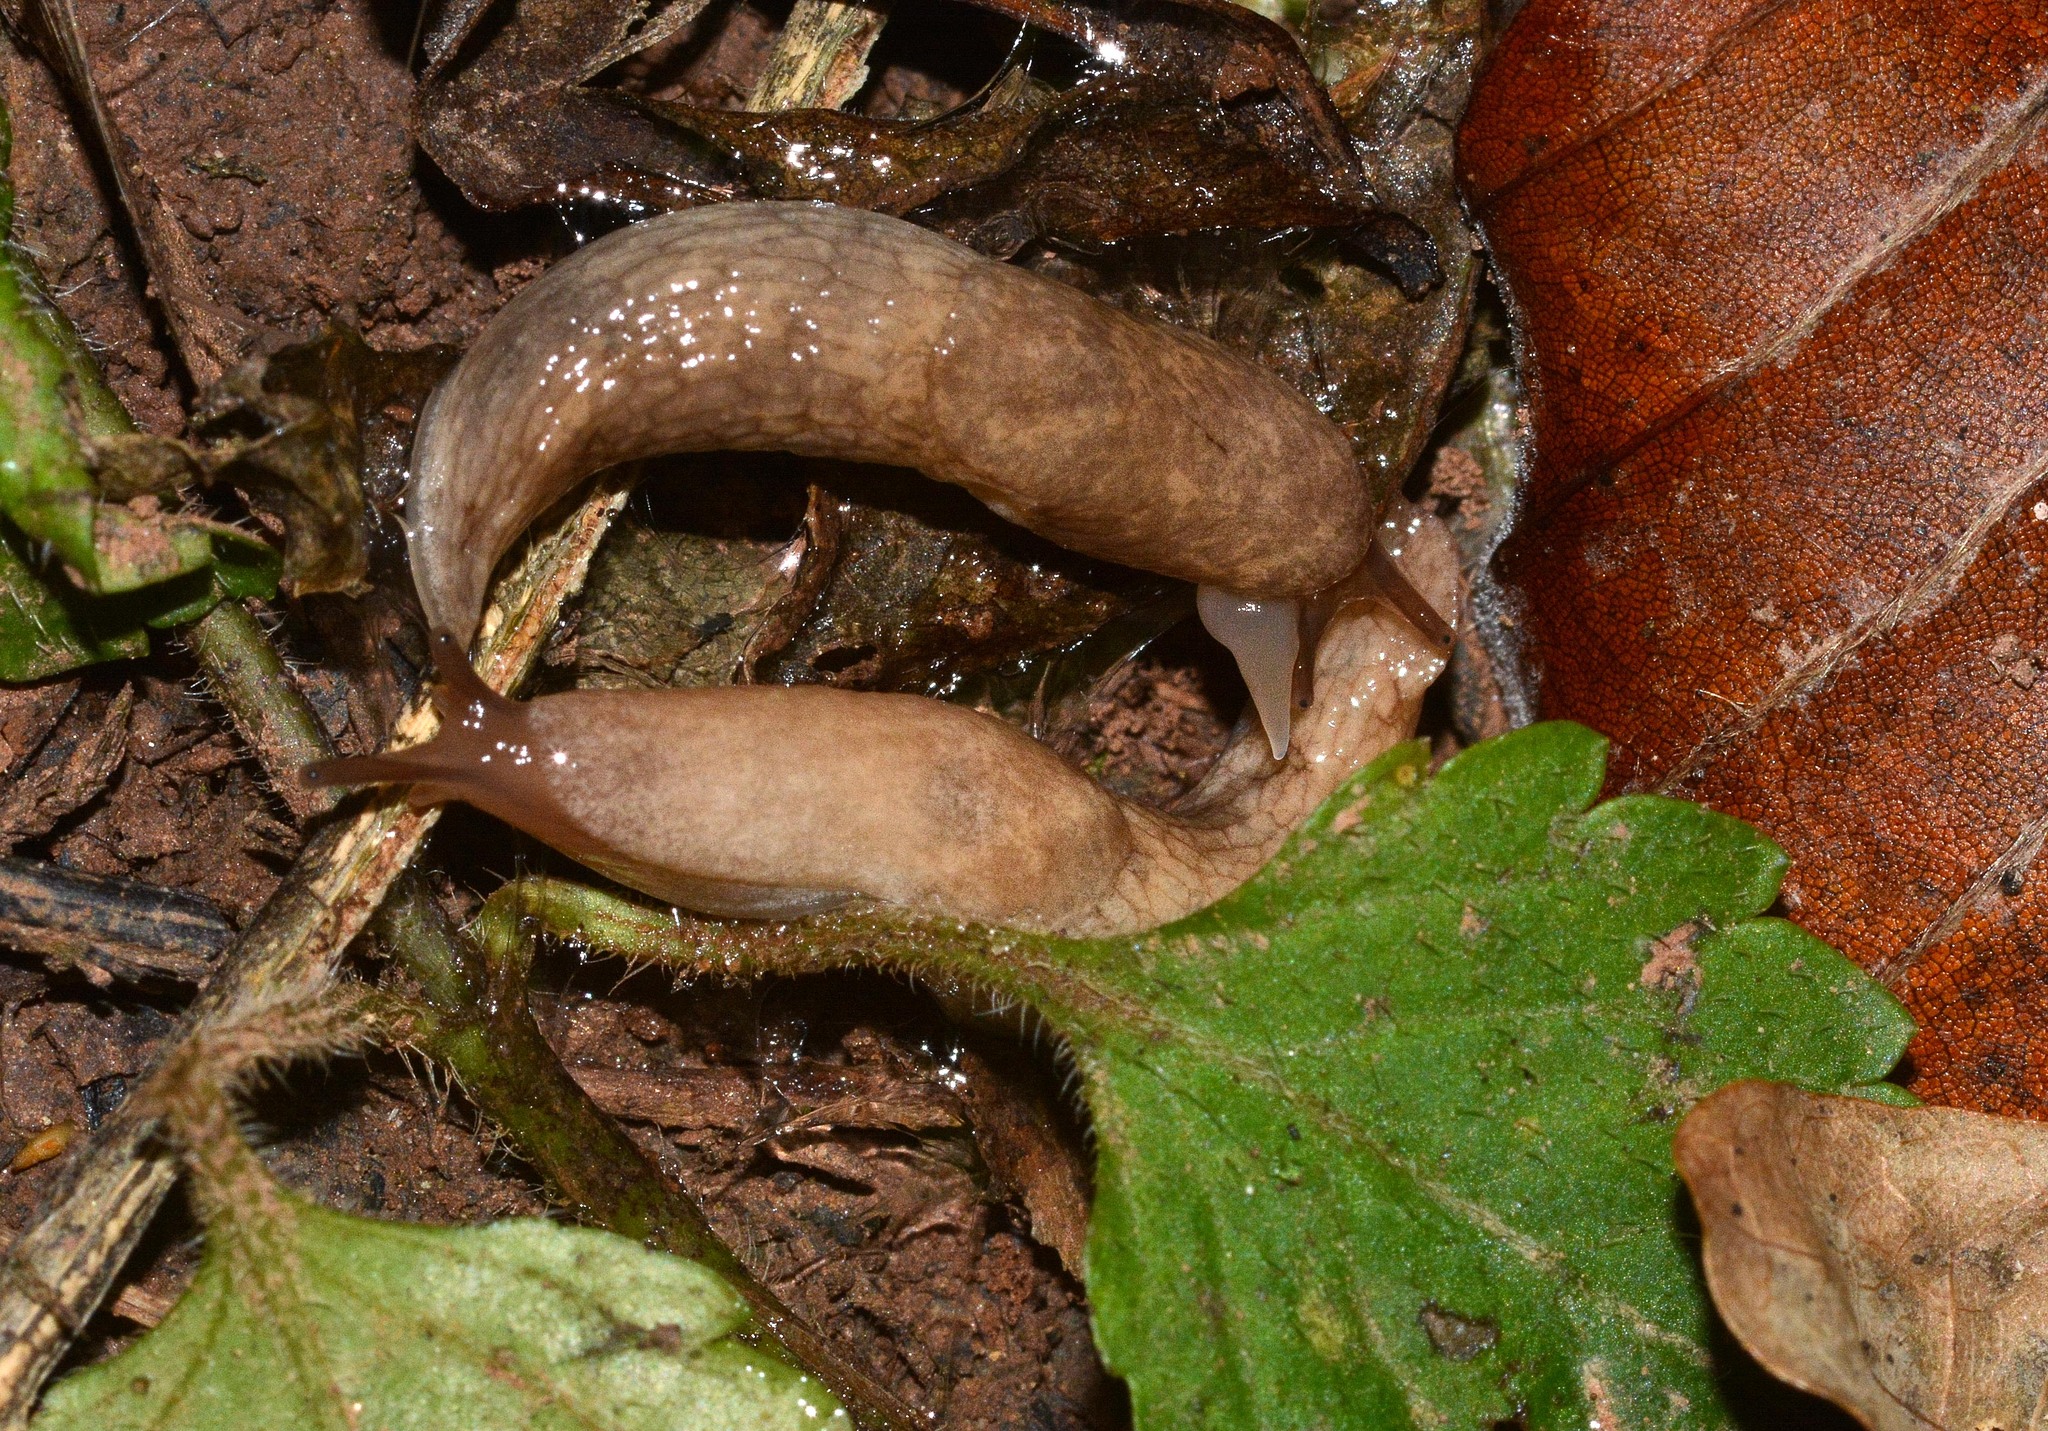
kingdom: Animalia
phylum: Mollusca
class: Gastropoda
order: Stylommatophora
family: Agriolimacidae
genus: Deroceras
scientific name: Deroceras reticulatum
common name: Gray field slug
